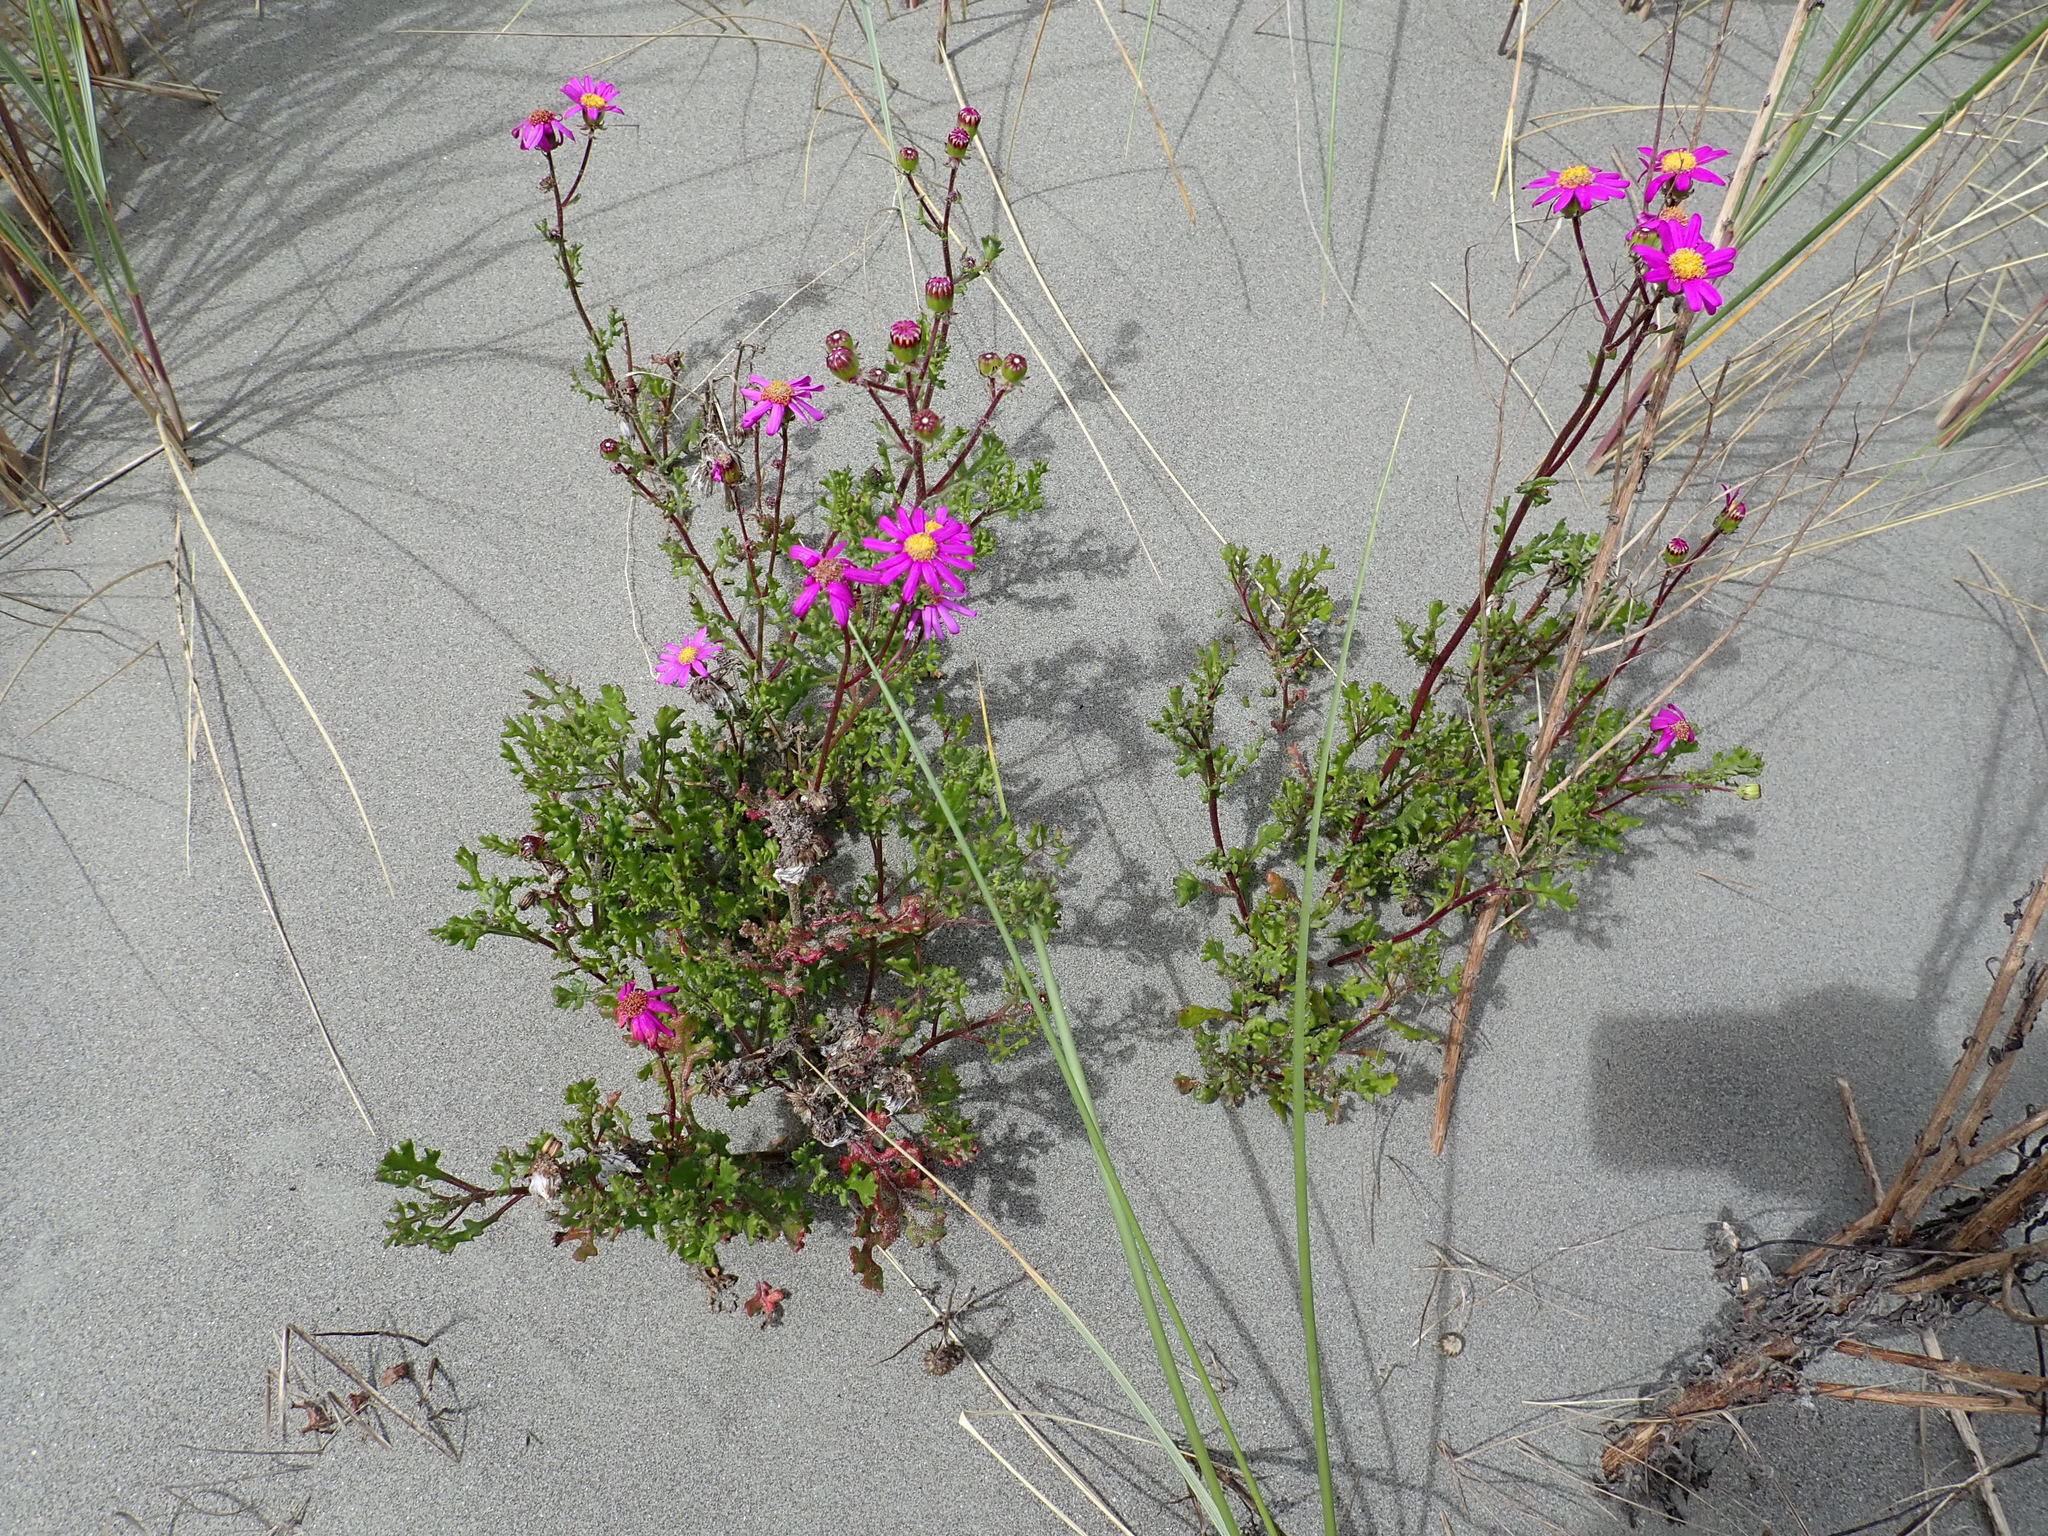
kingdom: Plantae
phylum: Tracheophyta
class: Magnoliopsida
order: Asterales
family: Asteraceae
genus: Senecio
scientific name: Senecio elegans
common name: Purple groundsel
